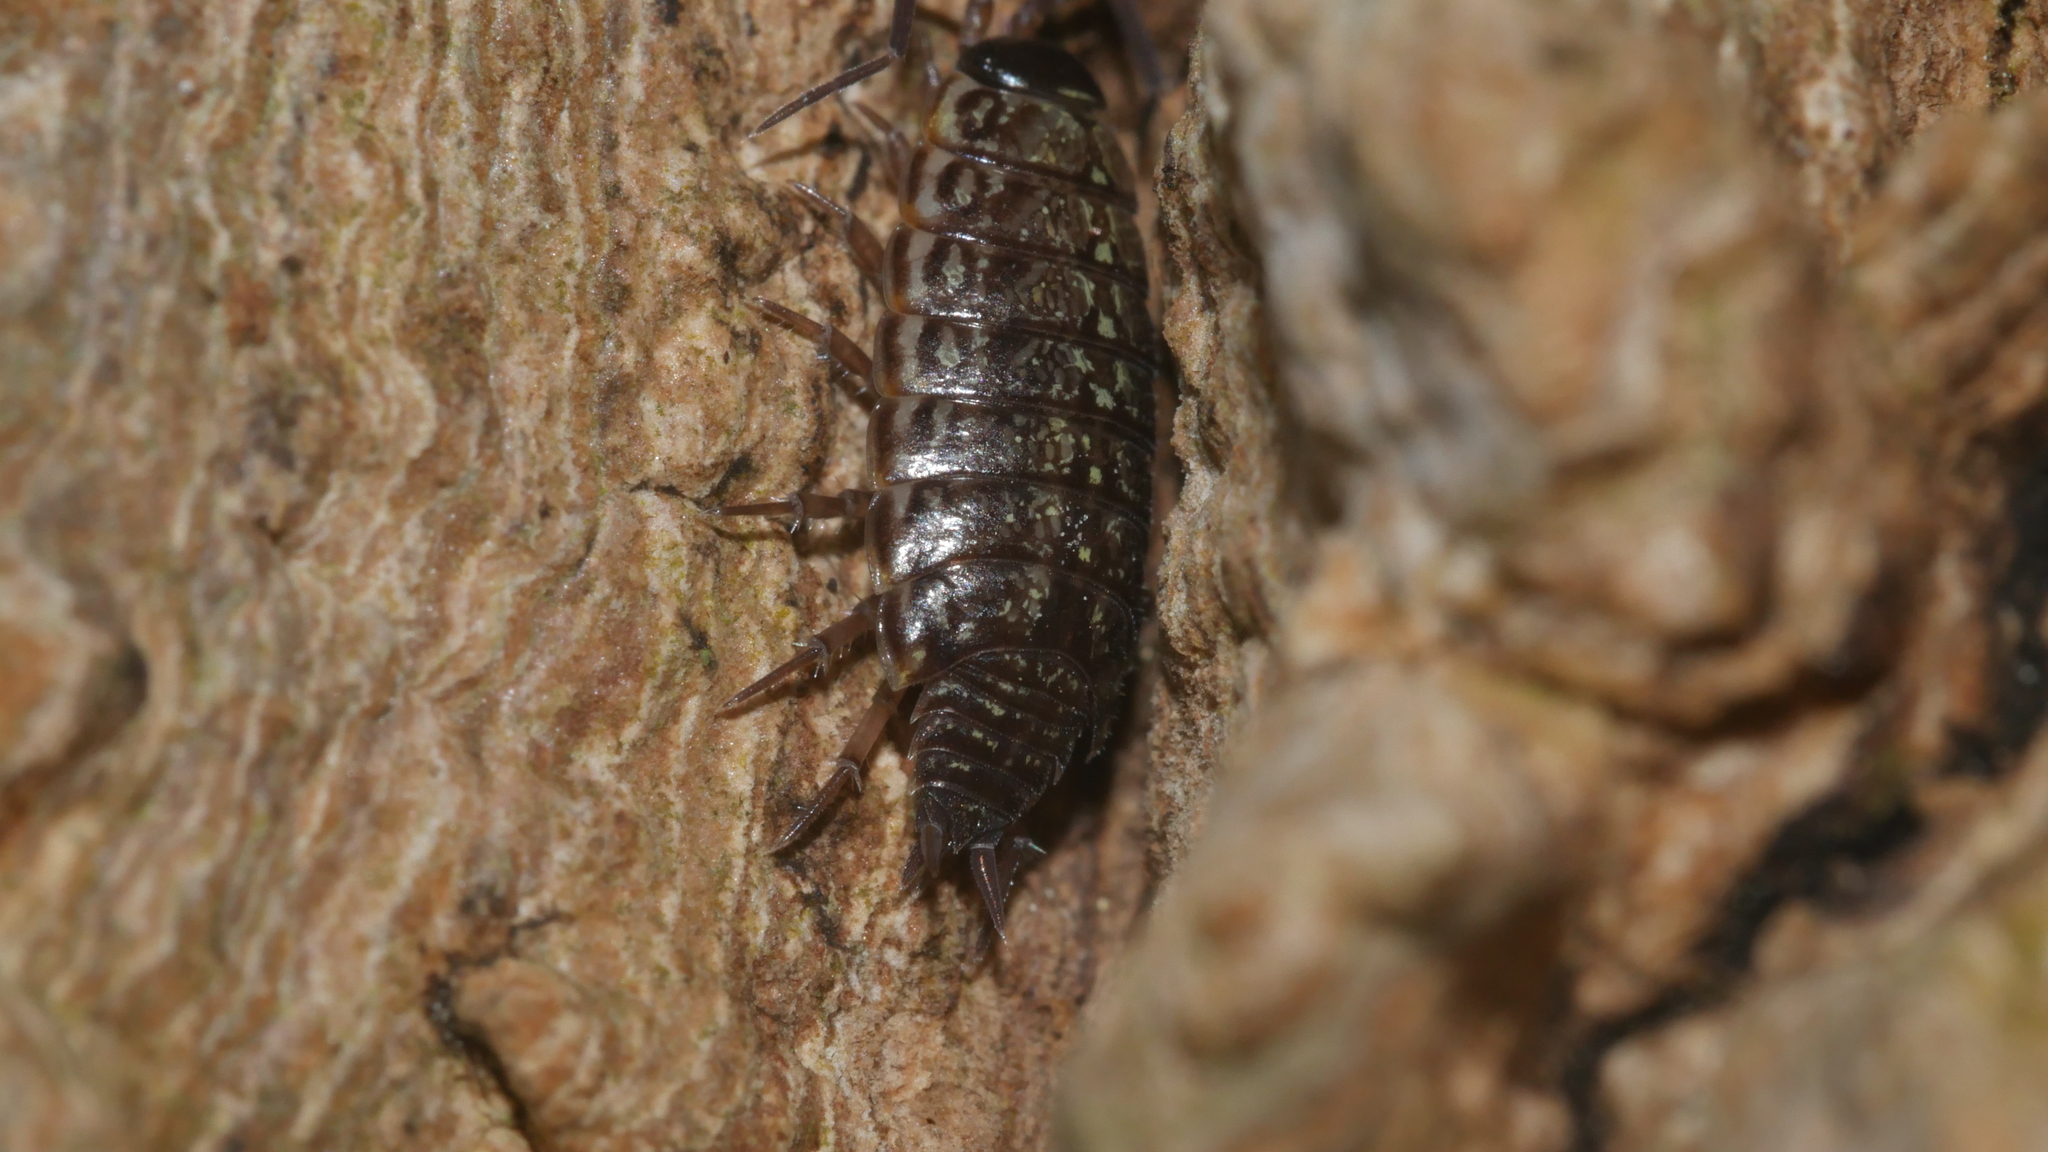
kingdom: Animalia
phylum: Arthropoda
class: Malacostraca
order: Isopoda
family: Philosciidae
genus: Philoscia
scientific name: Philoscia muscorum
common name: Common striped woodlouse
